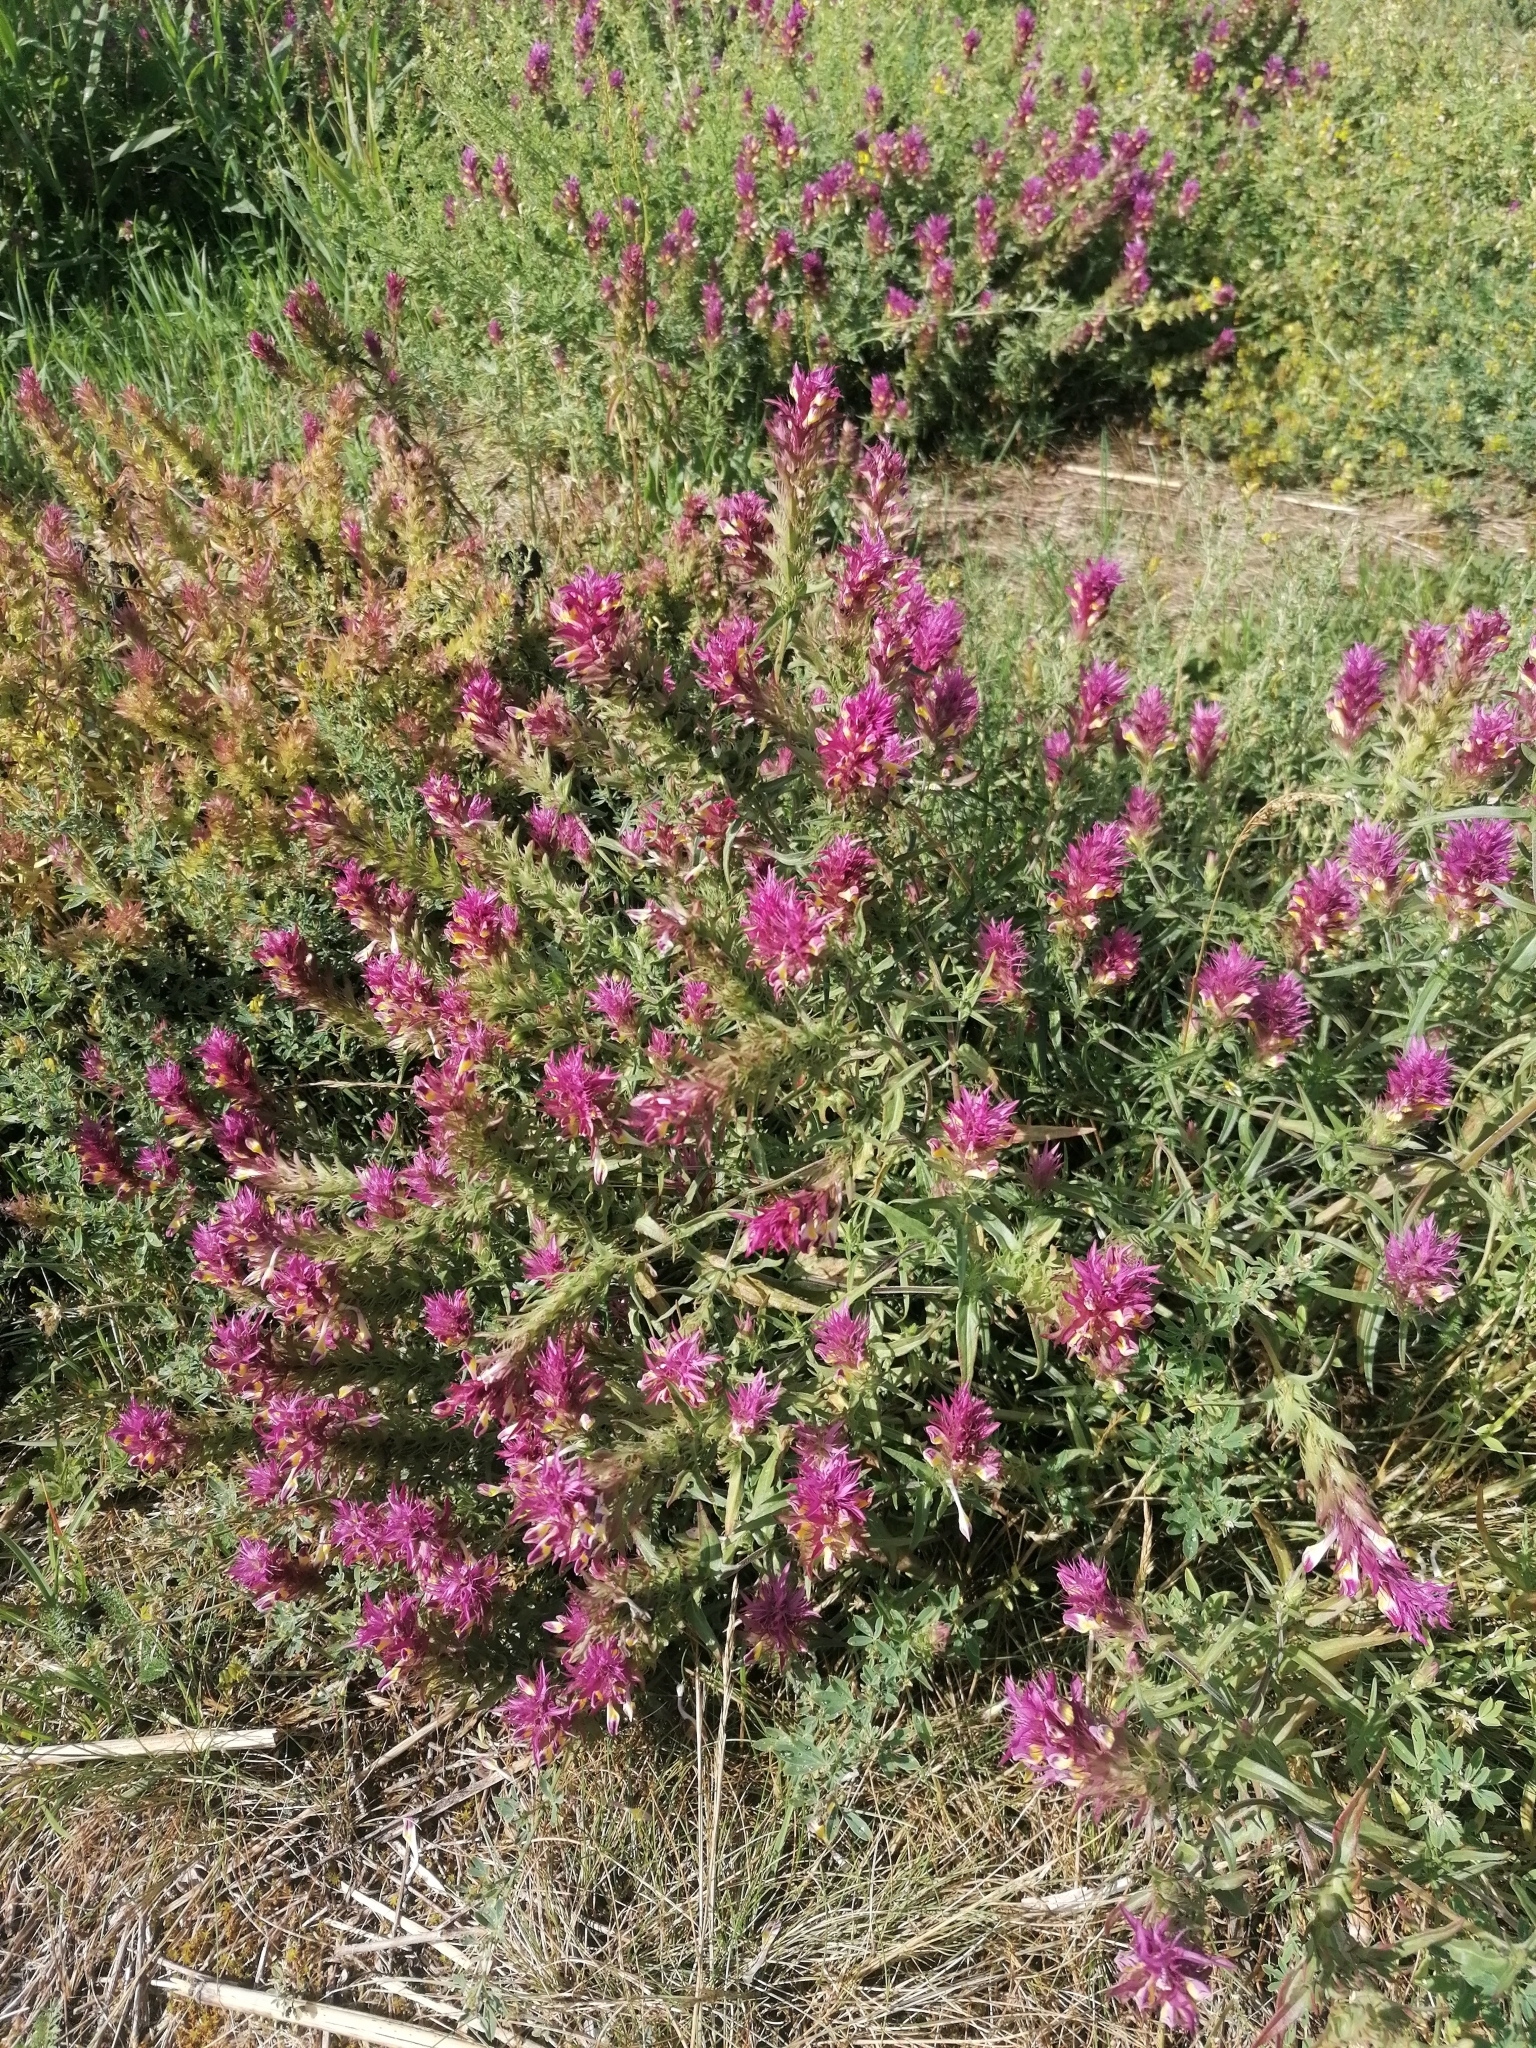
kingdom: Plantae
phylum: Tracheophyta
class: Magnoliopsida
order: Lamiales
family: Orobanchaceae
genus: Melampyrum
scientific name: Melampyrum arvense
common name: Field cow-wheat
